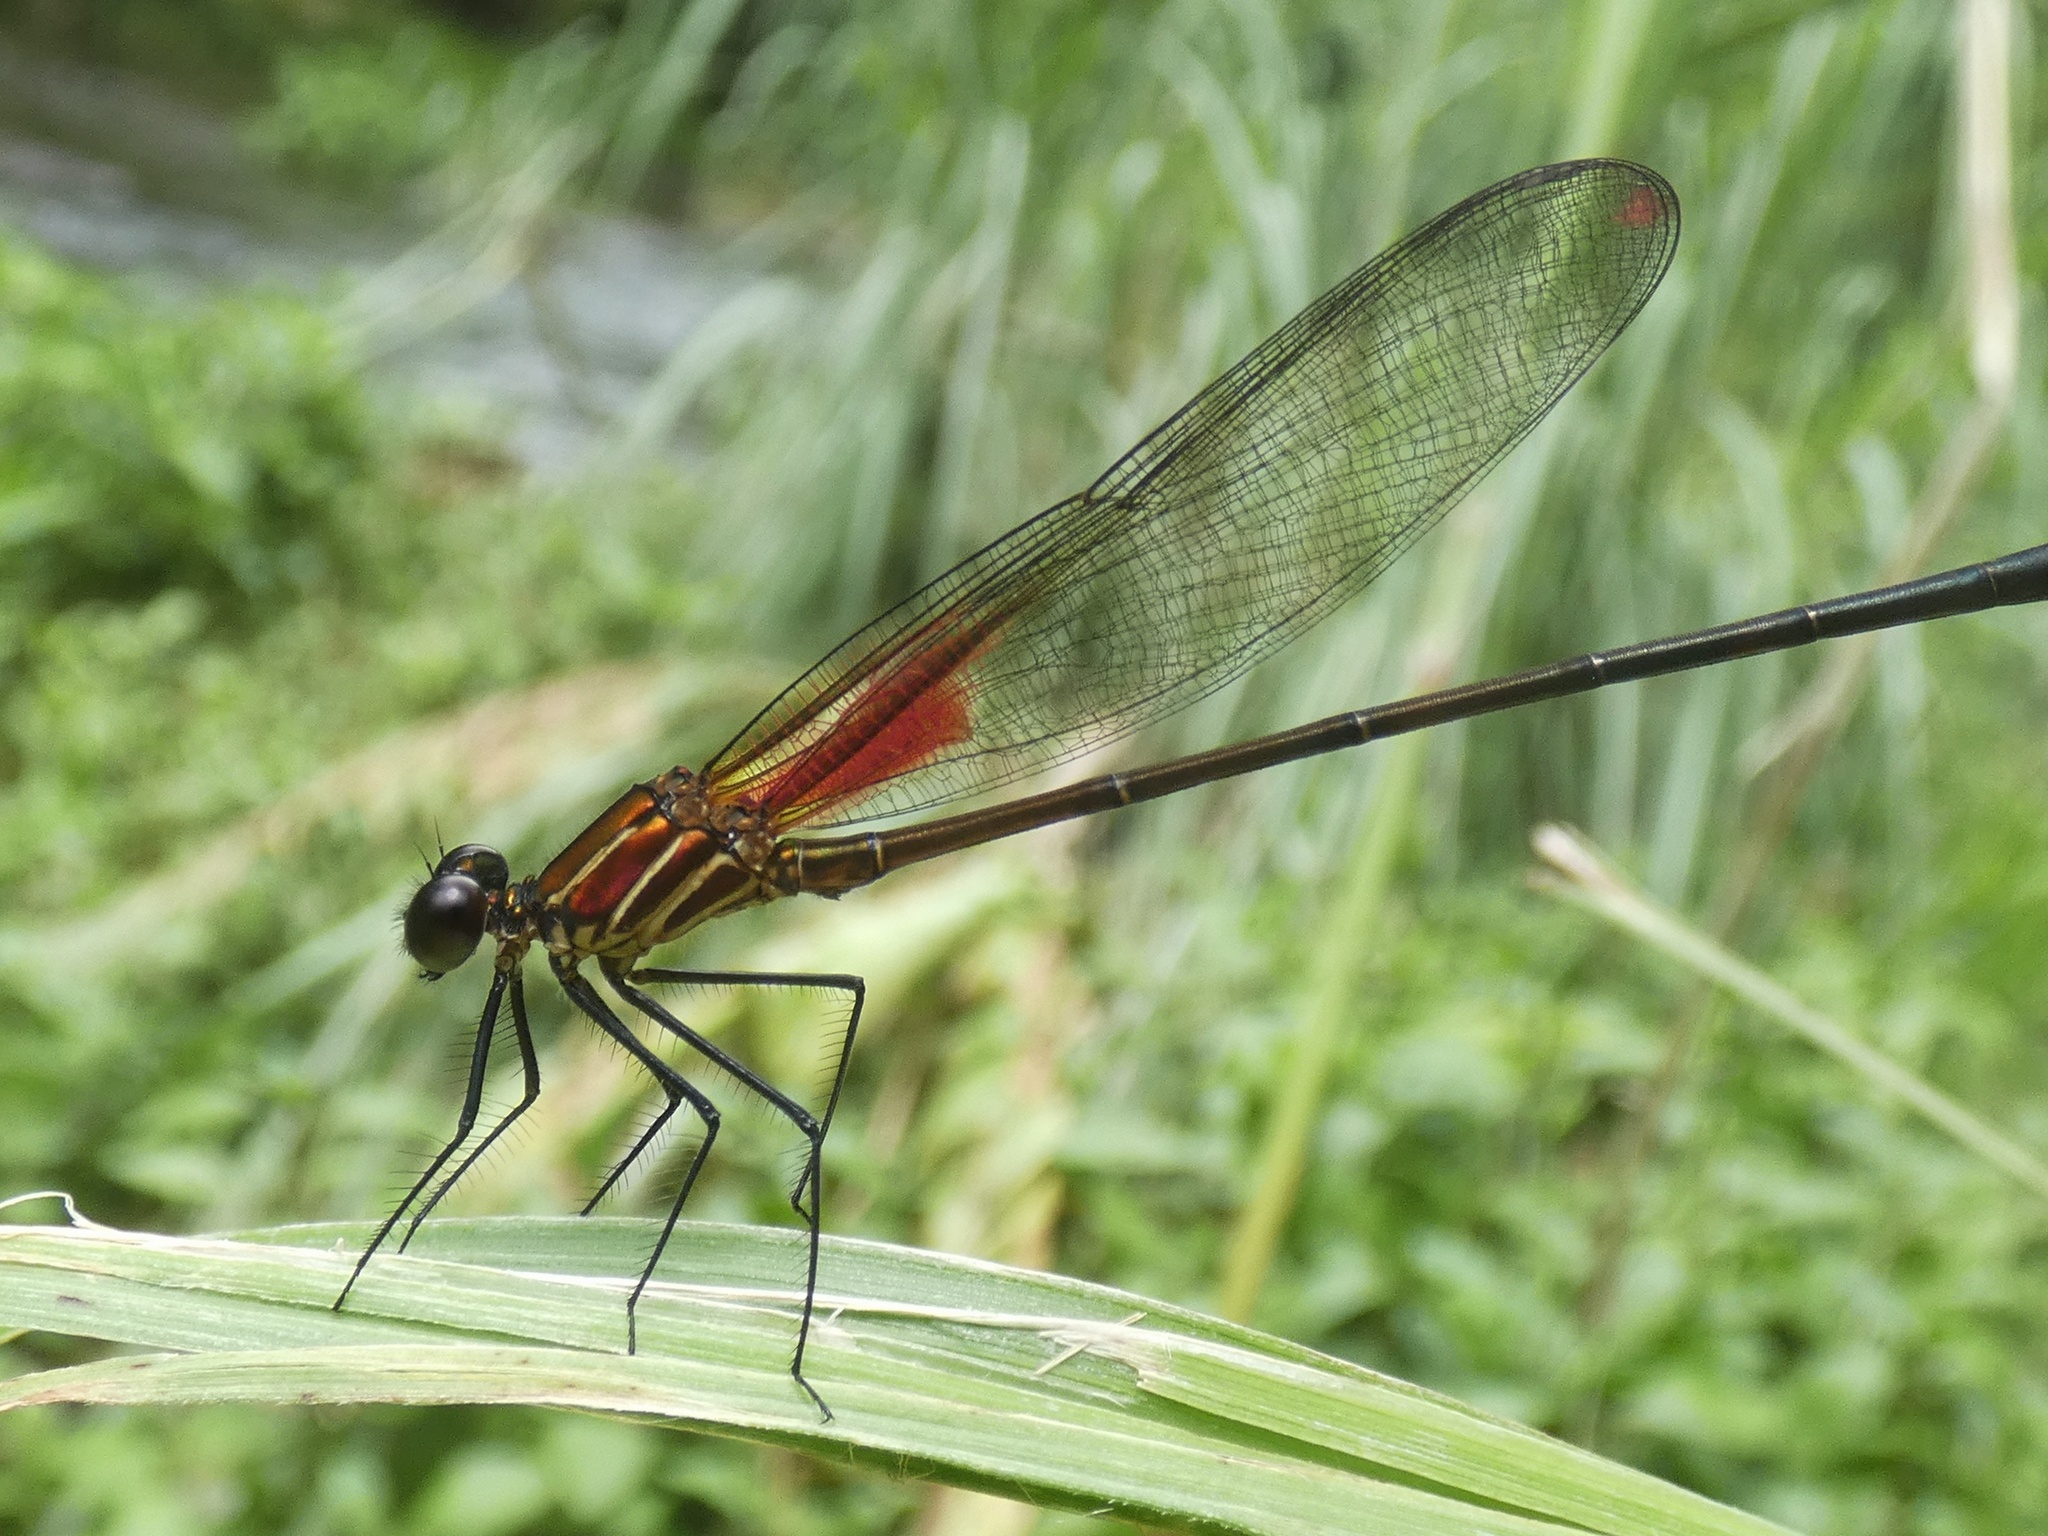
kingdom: Animalia
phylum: Arthropoda
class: Insecta
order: Odonata
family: Calopterygidae
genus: Hetaerina
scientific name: Hetaerina occisa
